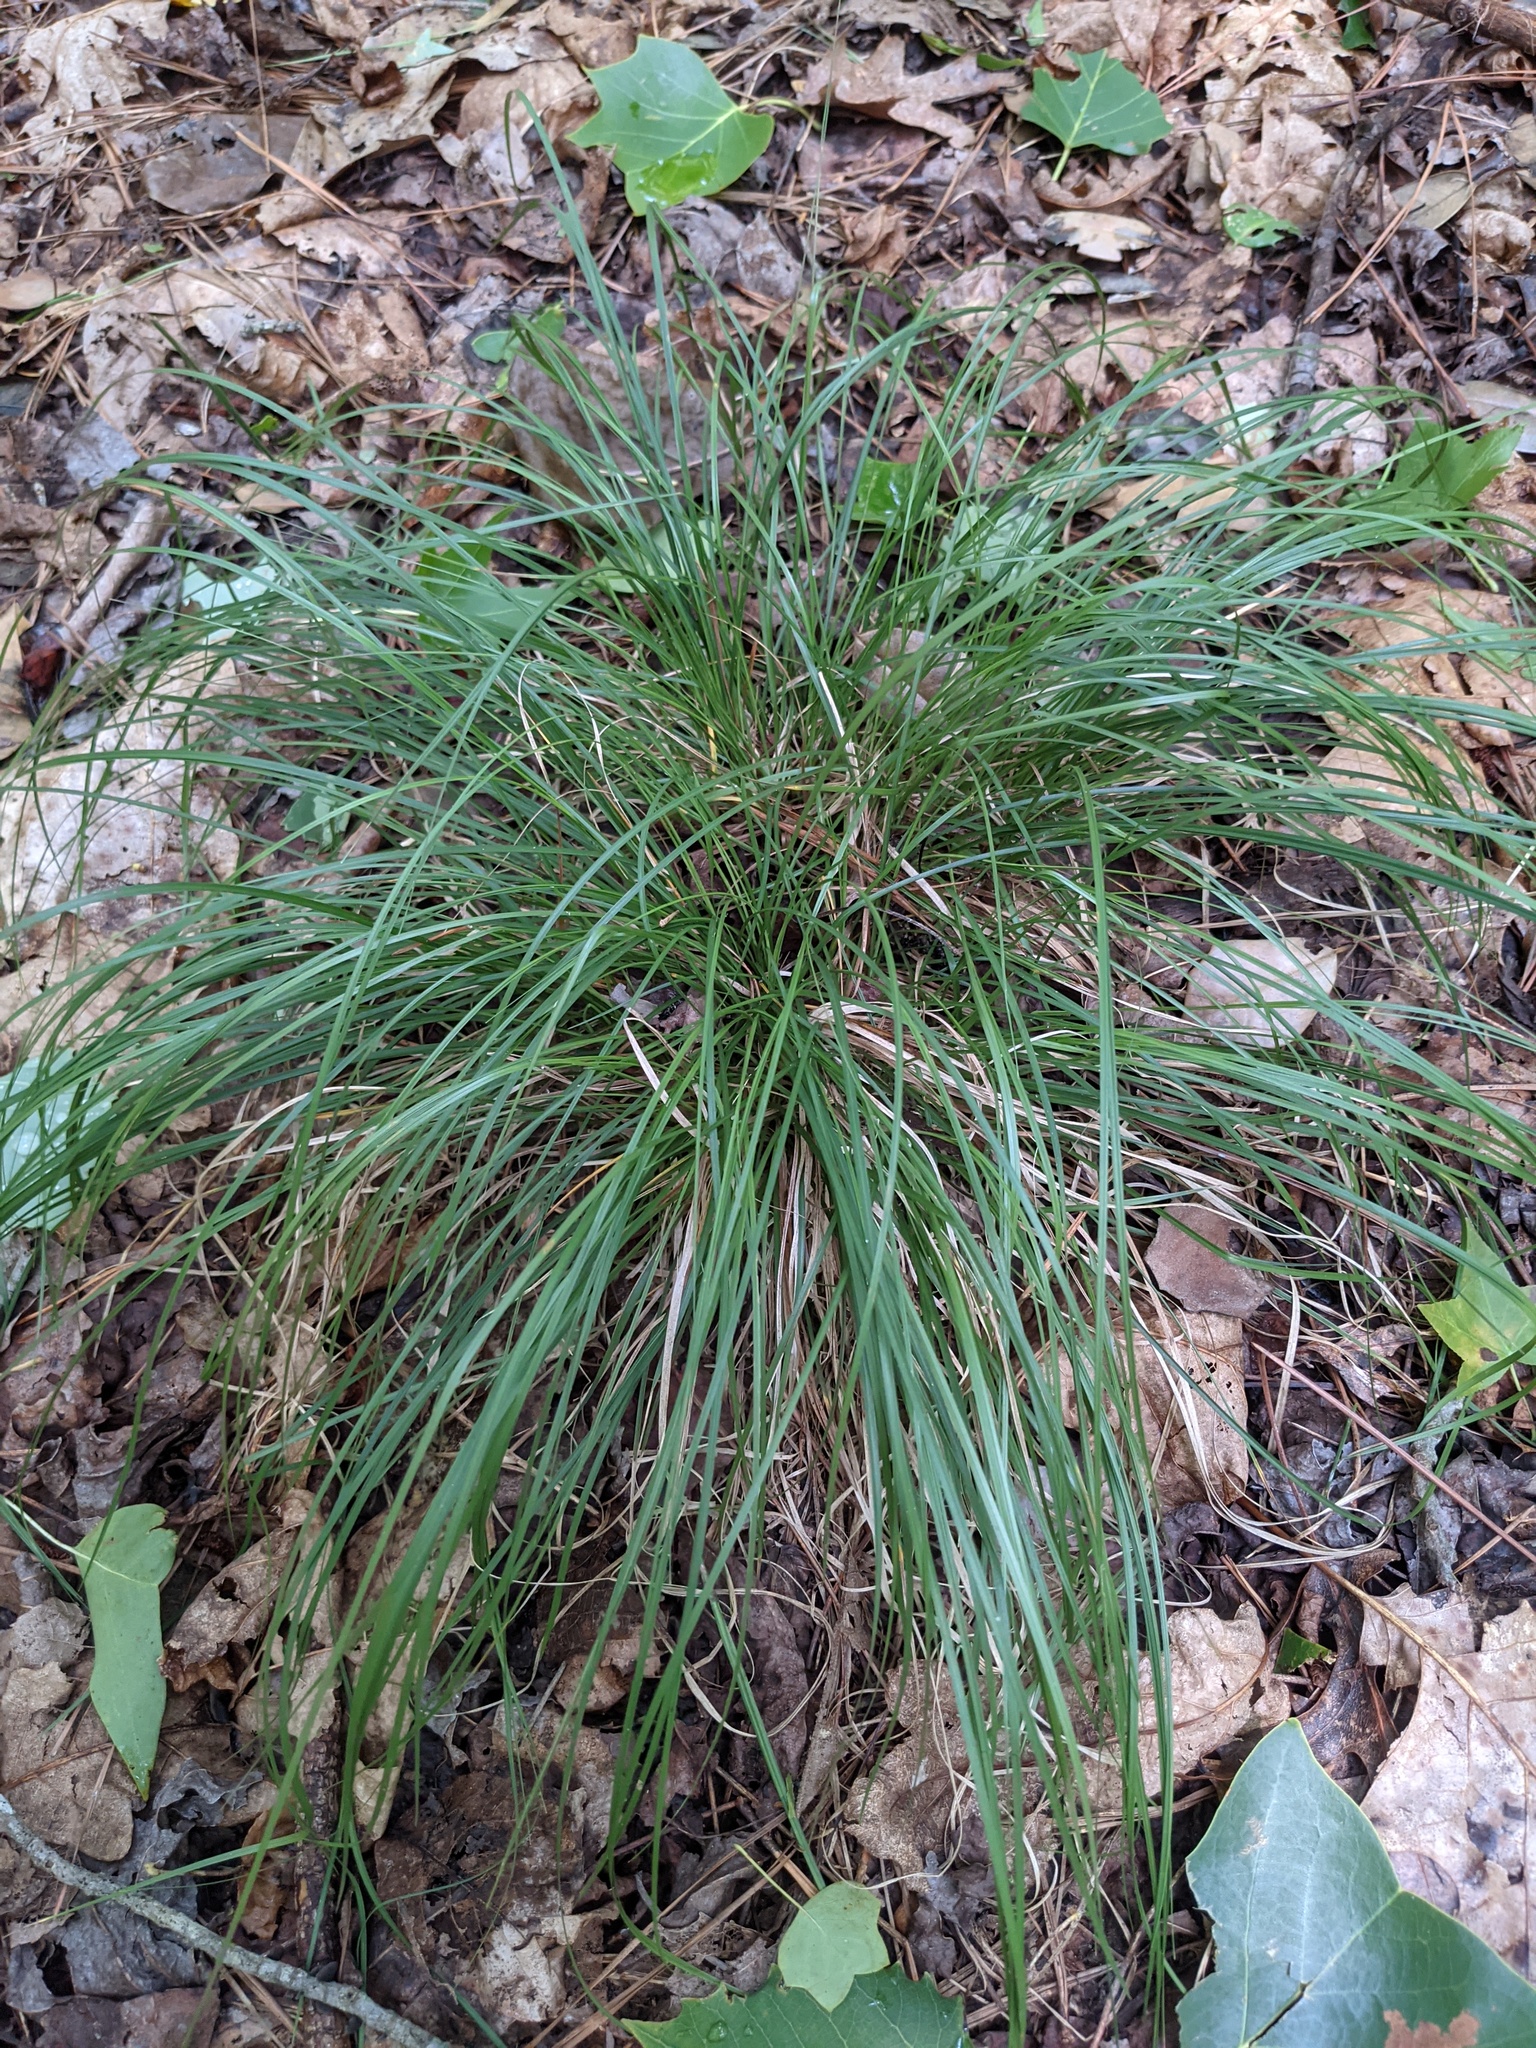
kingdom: Plantae
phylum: Tracheophyta
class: Liliopsida
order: Poales
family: Cyperaceae
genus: Carex
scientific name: Carex
